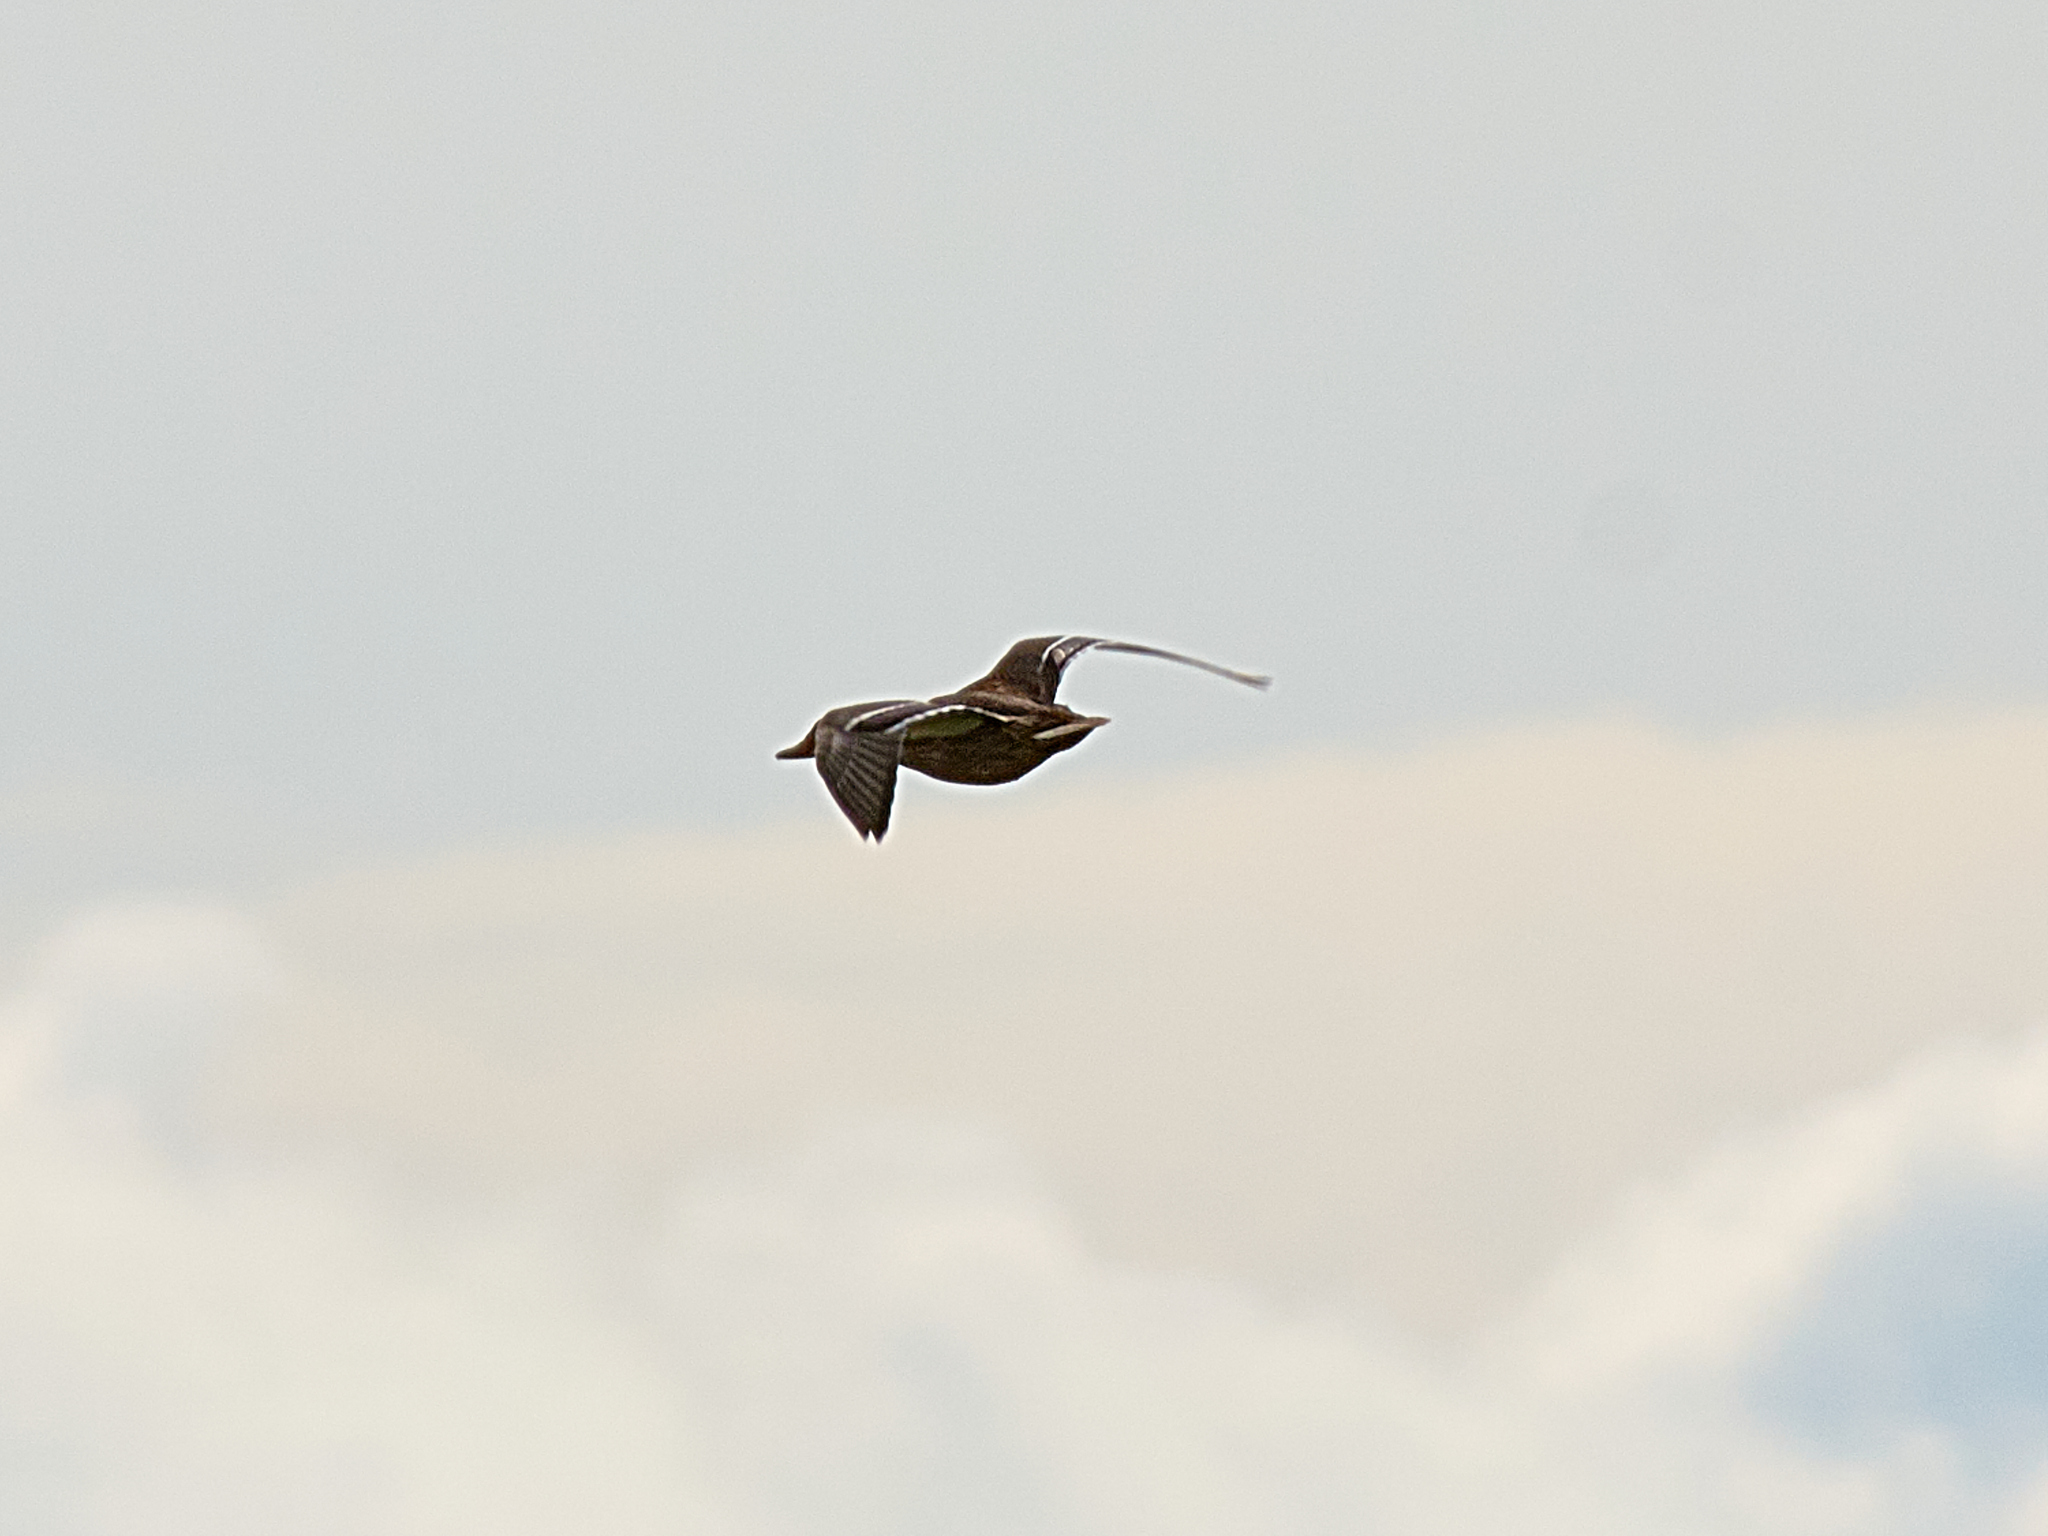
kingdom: Animalia
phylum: Chordata
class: Aves
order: Anseriformes
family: Anatidae
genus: Anas
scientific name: Anas platyrhynchos
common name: Mallard
